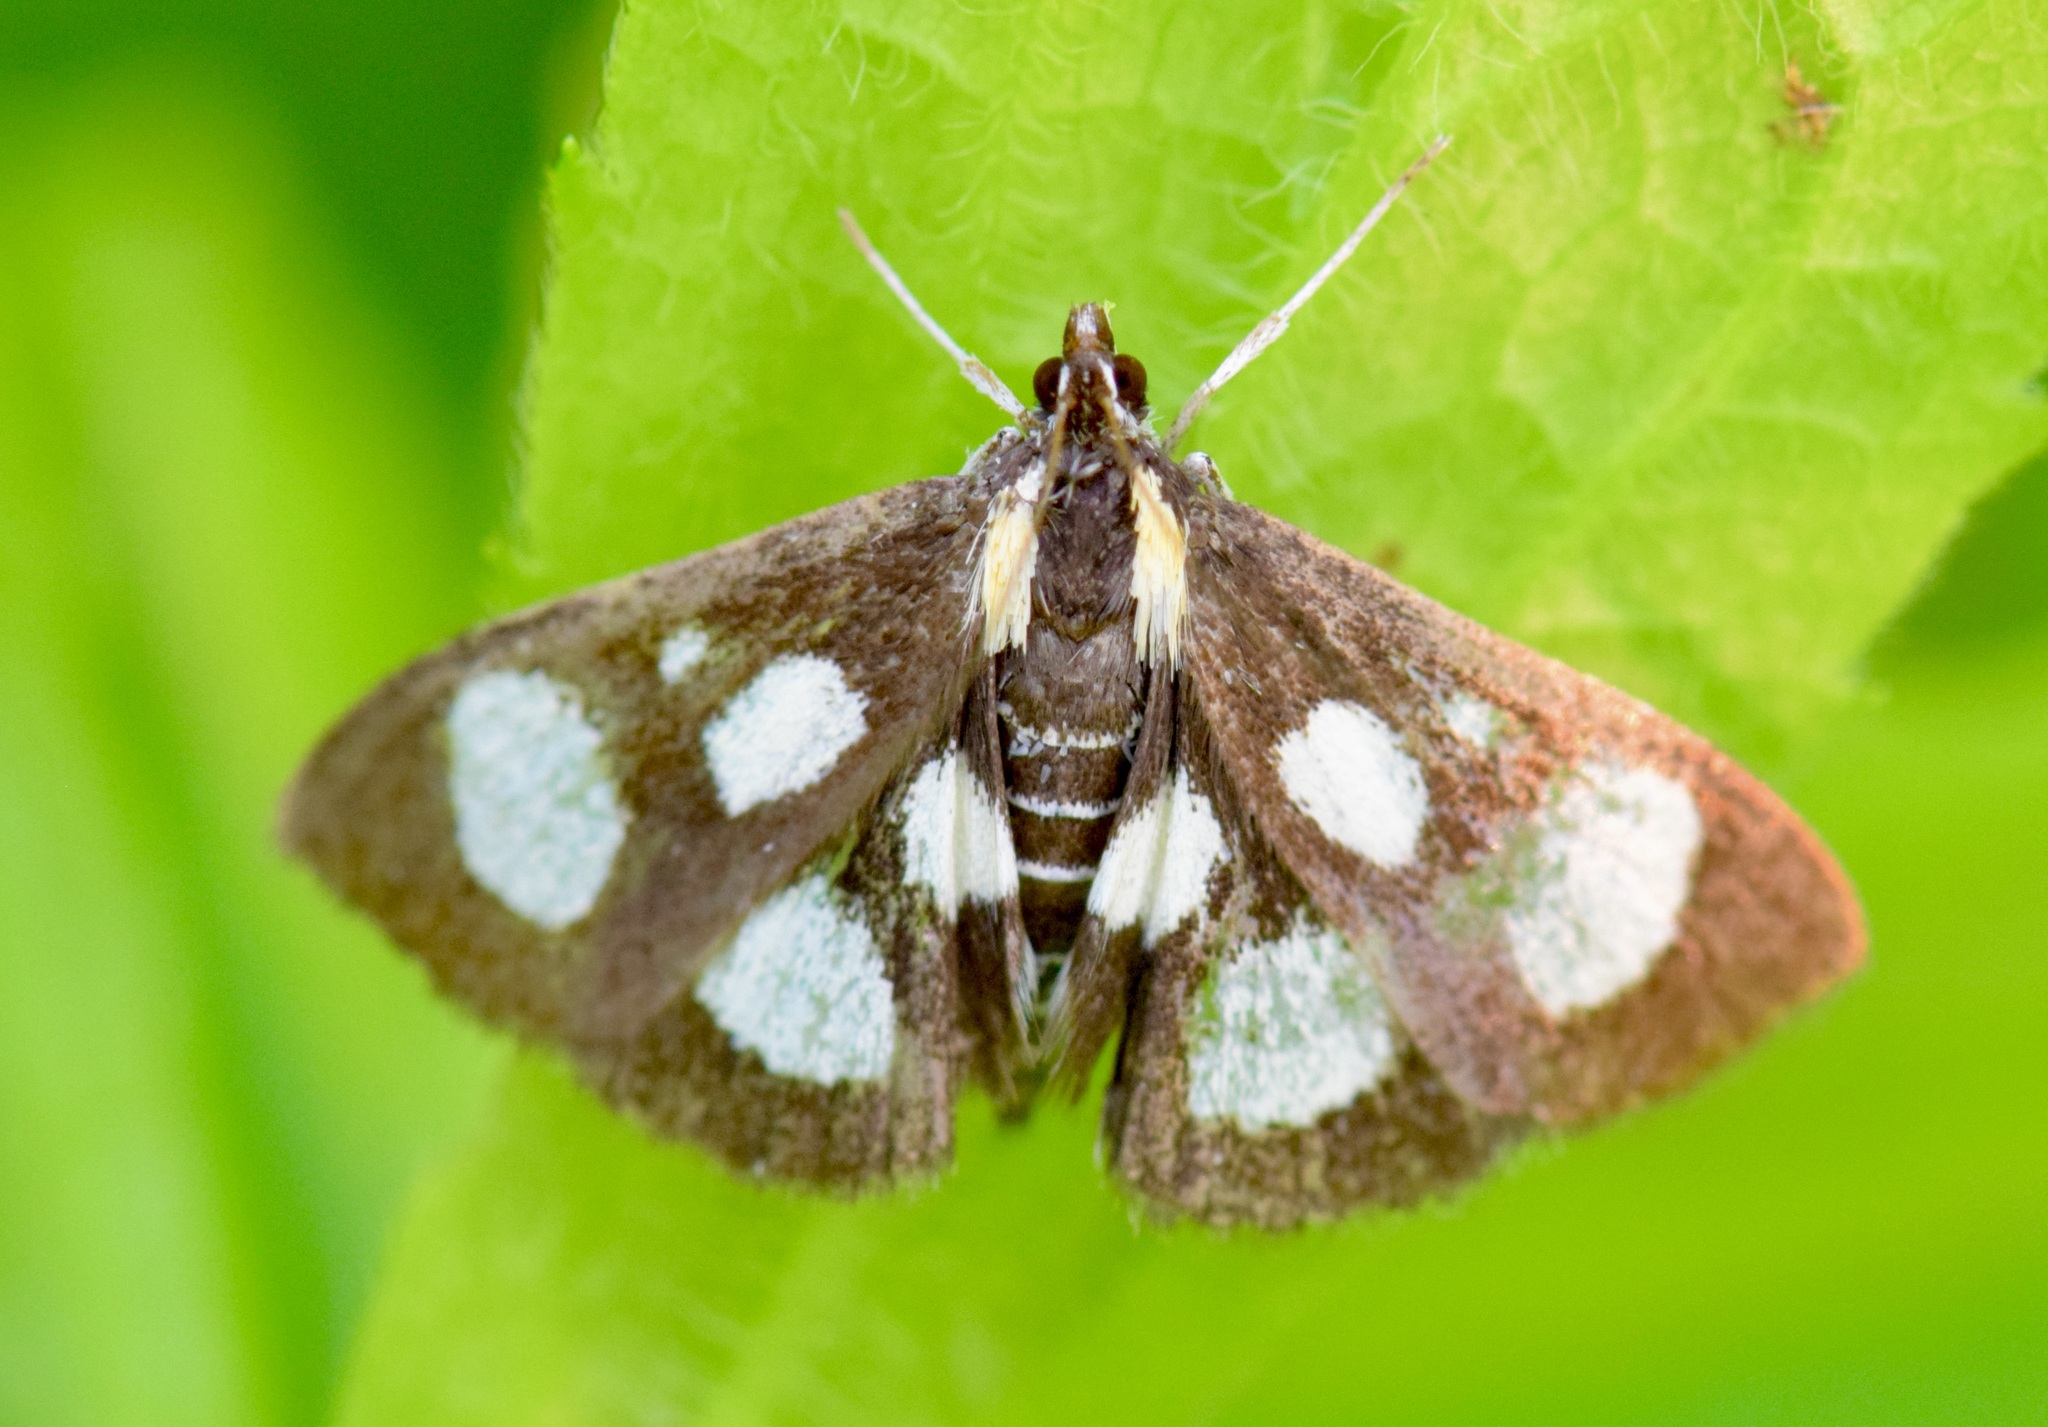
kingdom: Animalia
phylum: Arthropoda
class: Insecta
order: Lepidoptera
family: Crambidae
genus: Anania
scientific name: Anania funebris
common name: White-spotted sable moth
